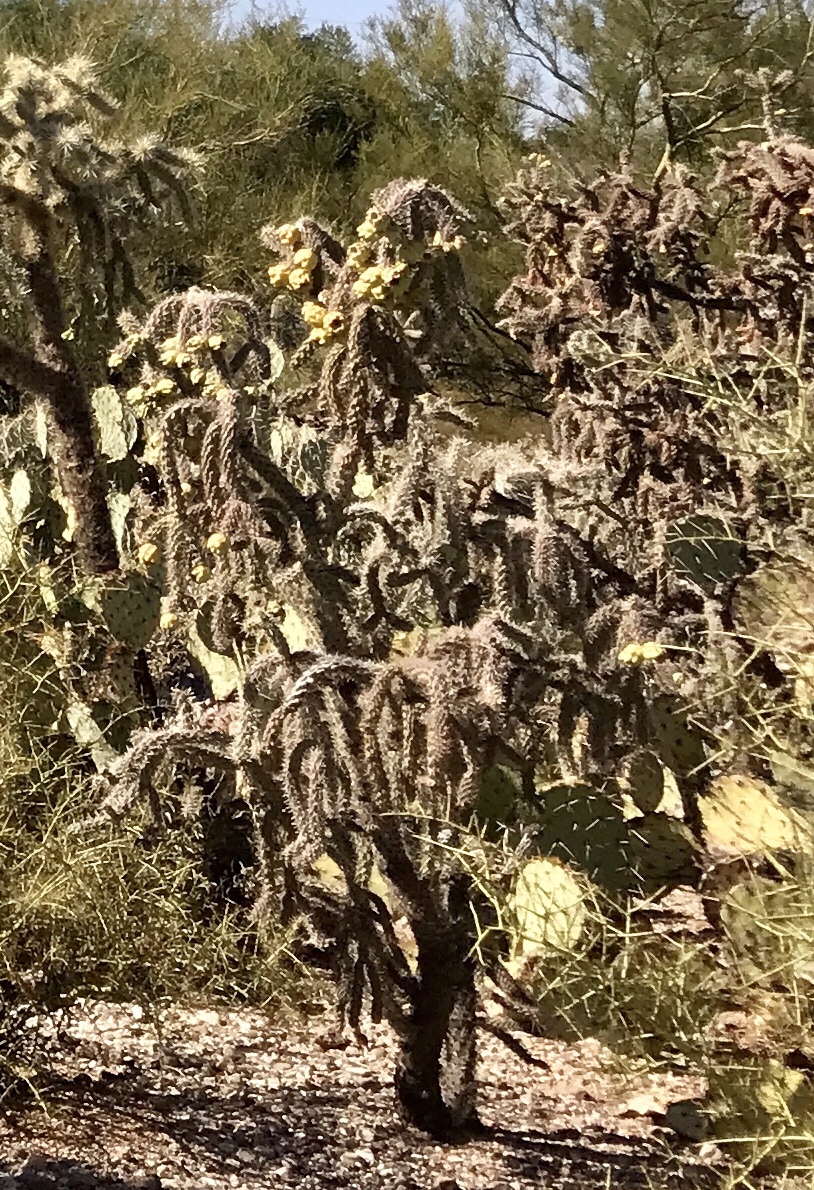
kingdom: Plantae
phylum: Tracheophyta
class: Magnoliopsida
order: Caryophyllales
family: Cactaceae
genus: Cylindropuntia
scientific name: Cylindropuntia imbricata
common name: Candelabrum cactus
